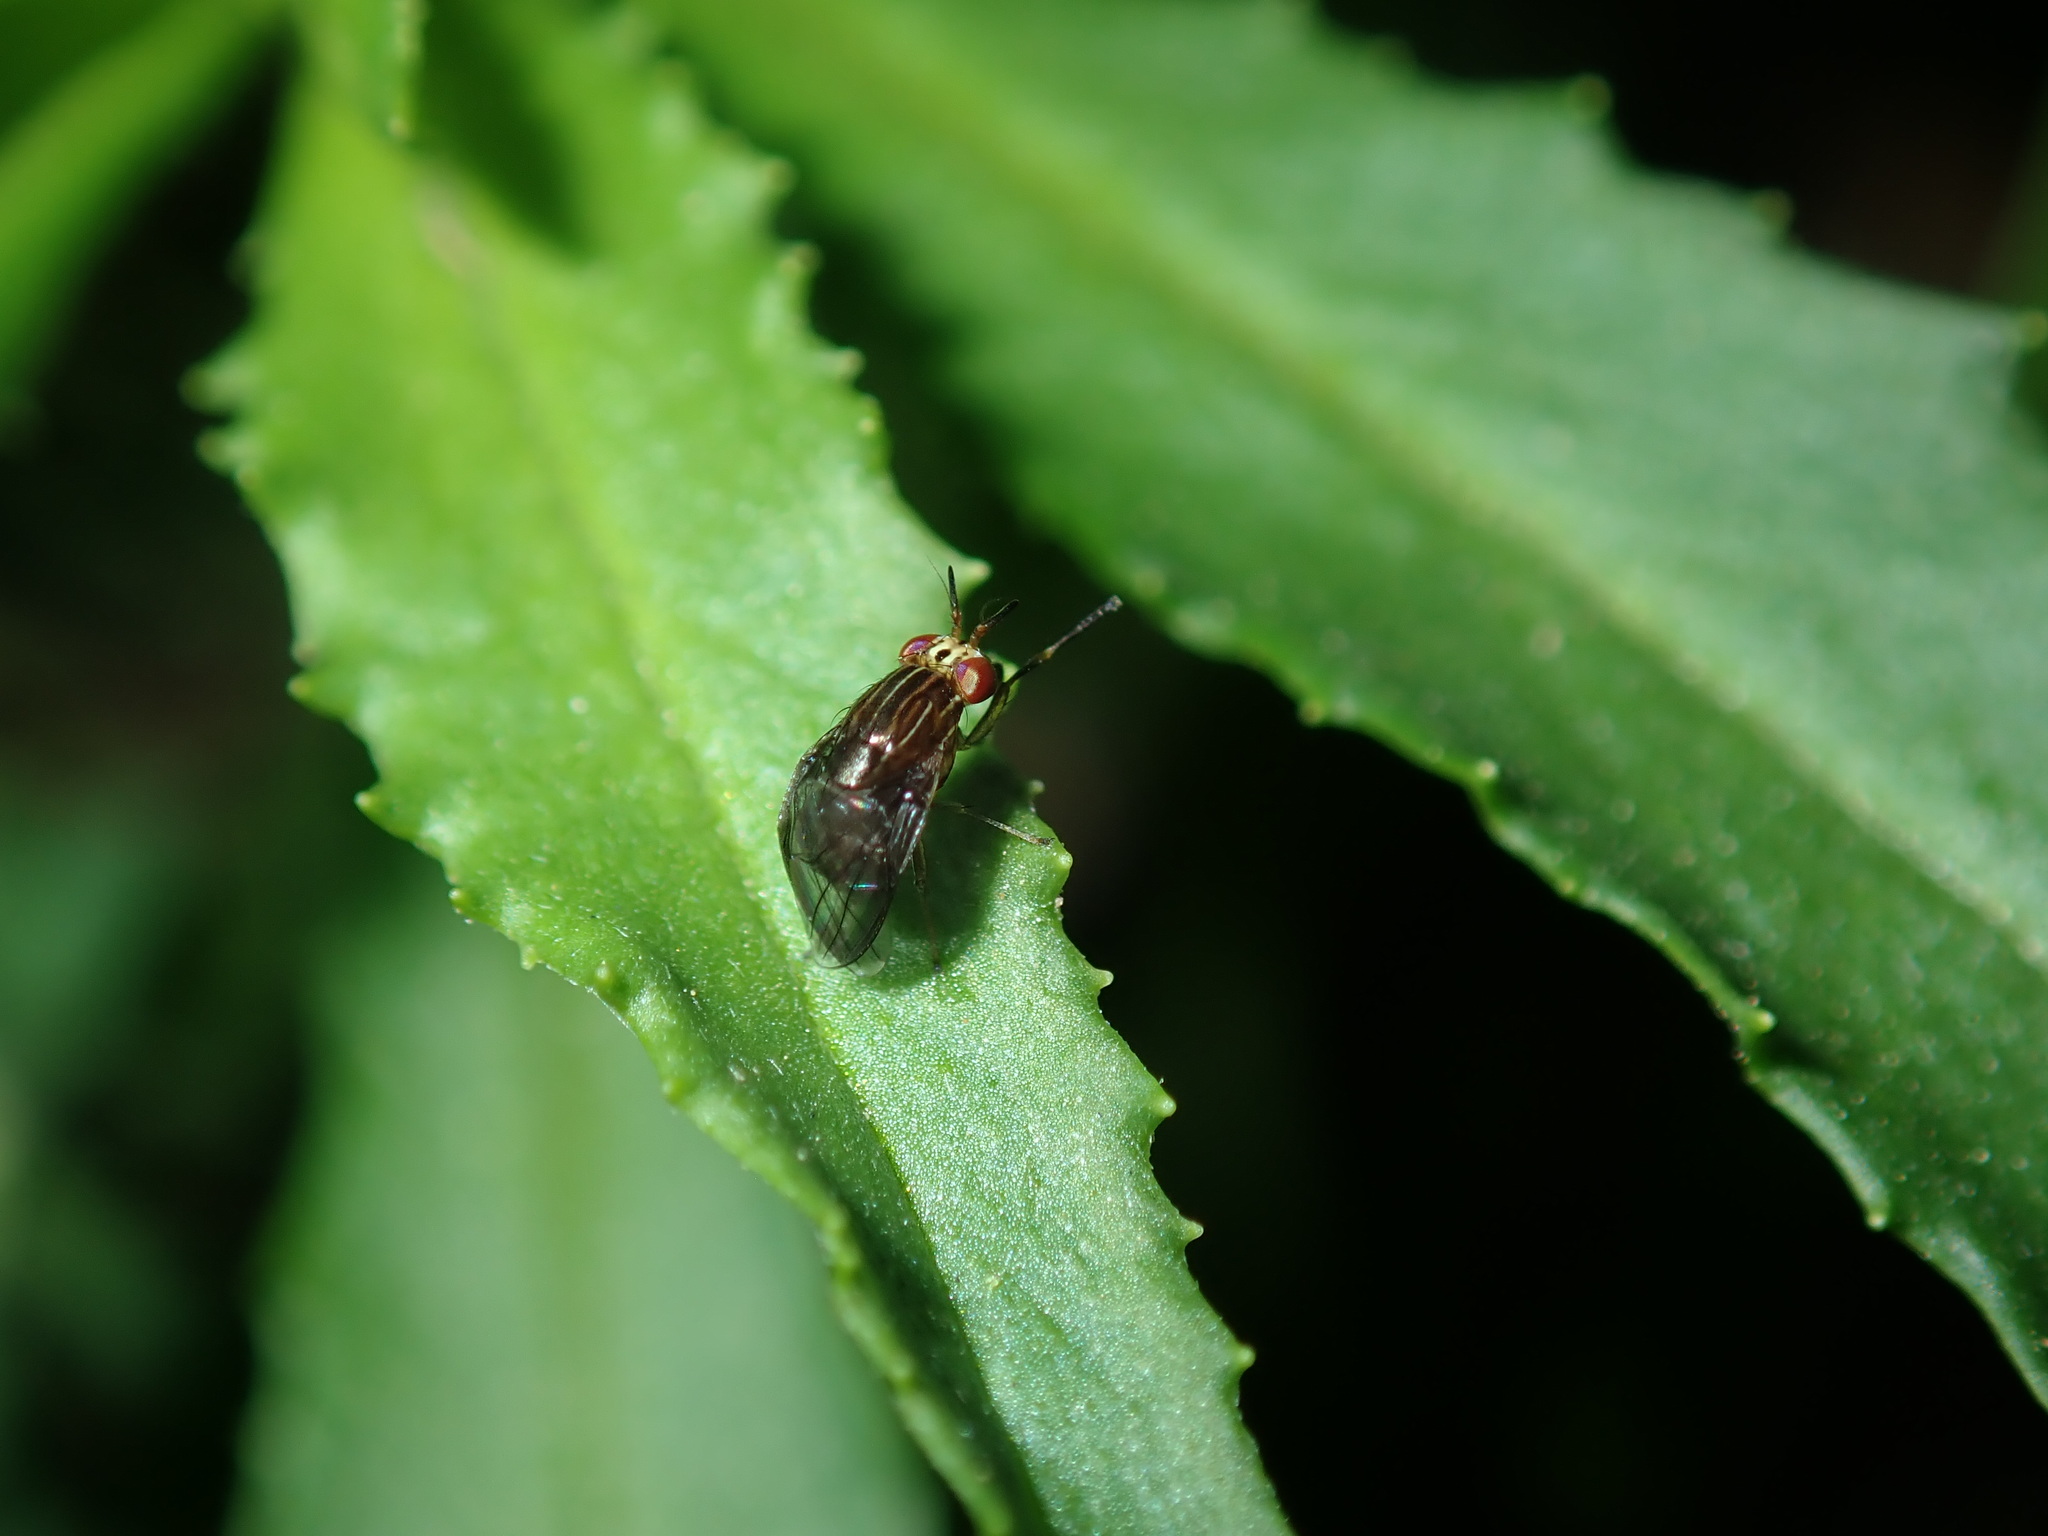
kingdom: Animalia
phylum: Arthropoda
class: Insecta
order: Diptera
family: Lauxaniidae
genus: Steganopsis
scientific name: Steganopsis melanogaster
